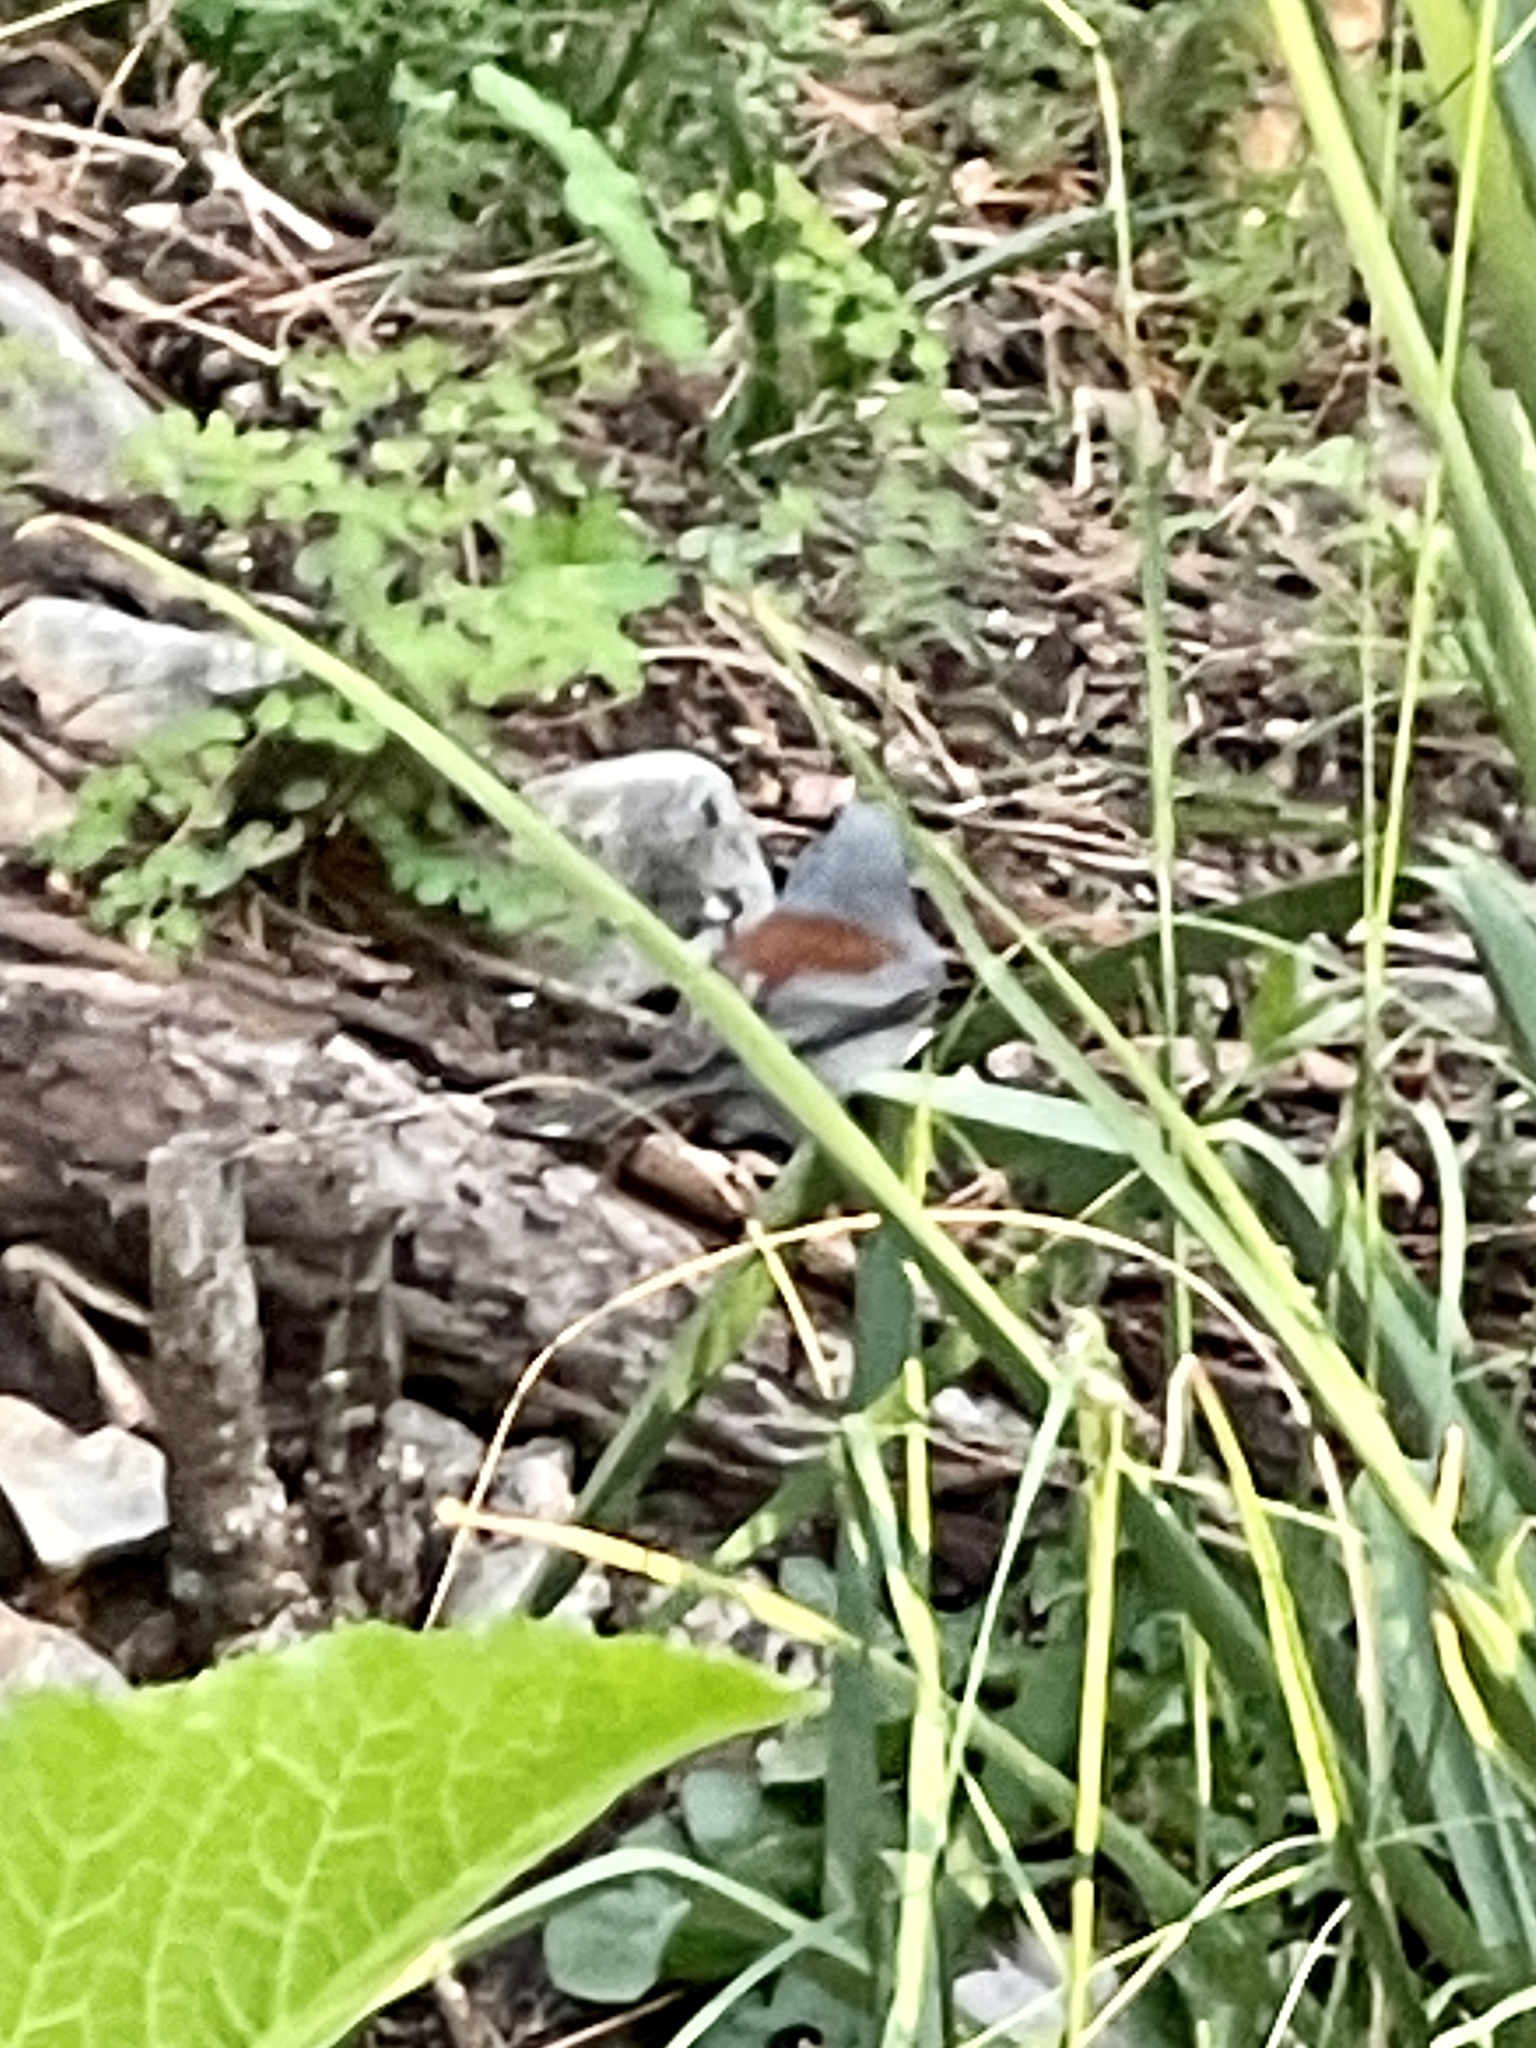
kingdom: Animalia
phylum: Chordata
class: Aves
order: Passeriformes
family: Passerellidae
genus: Junco
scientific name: Junco hyemalis
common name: Dark-eyed junco
